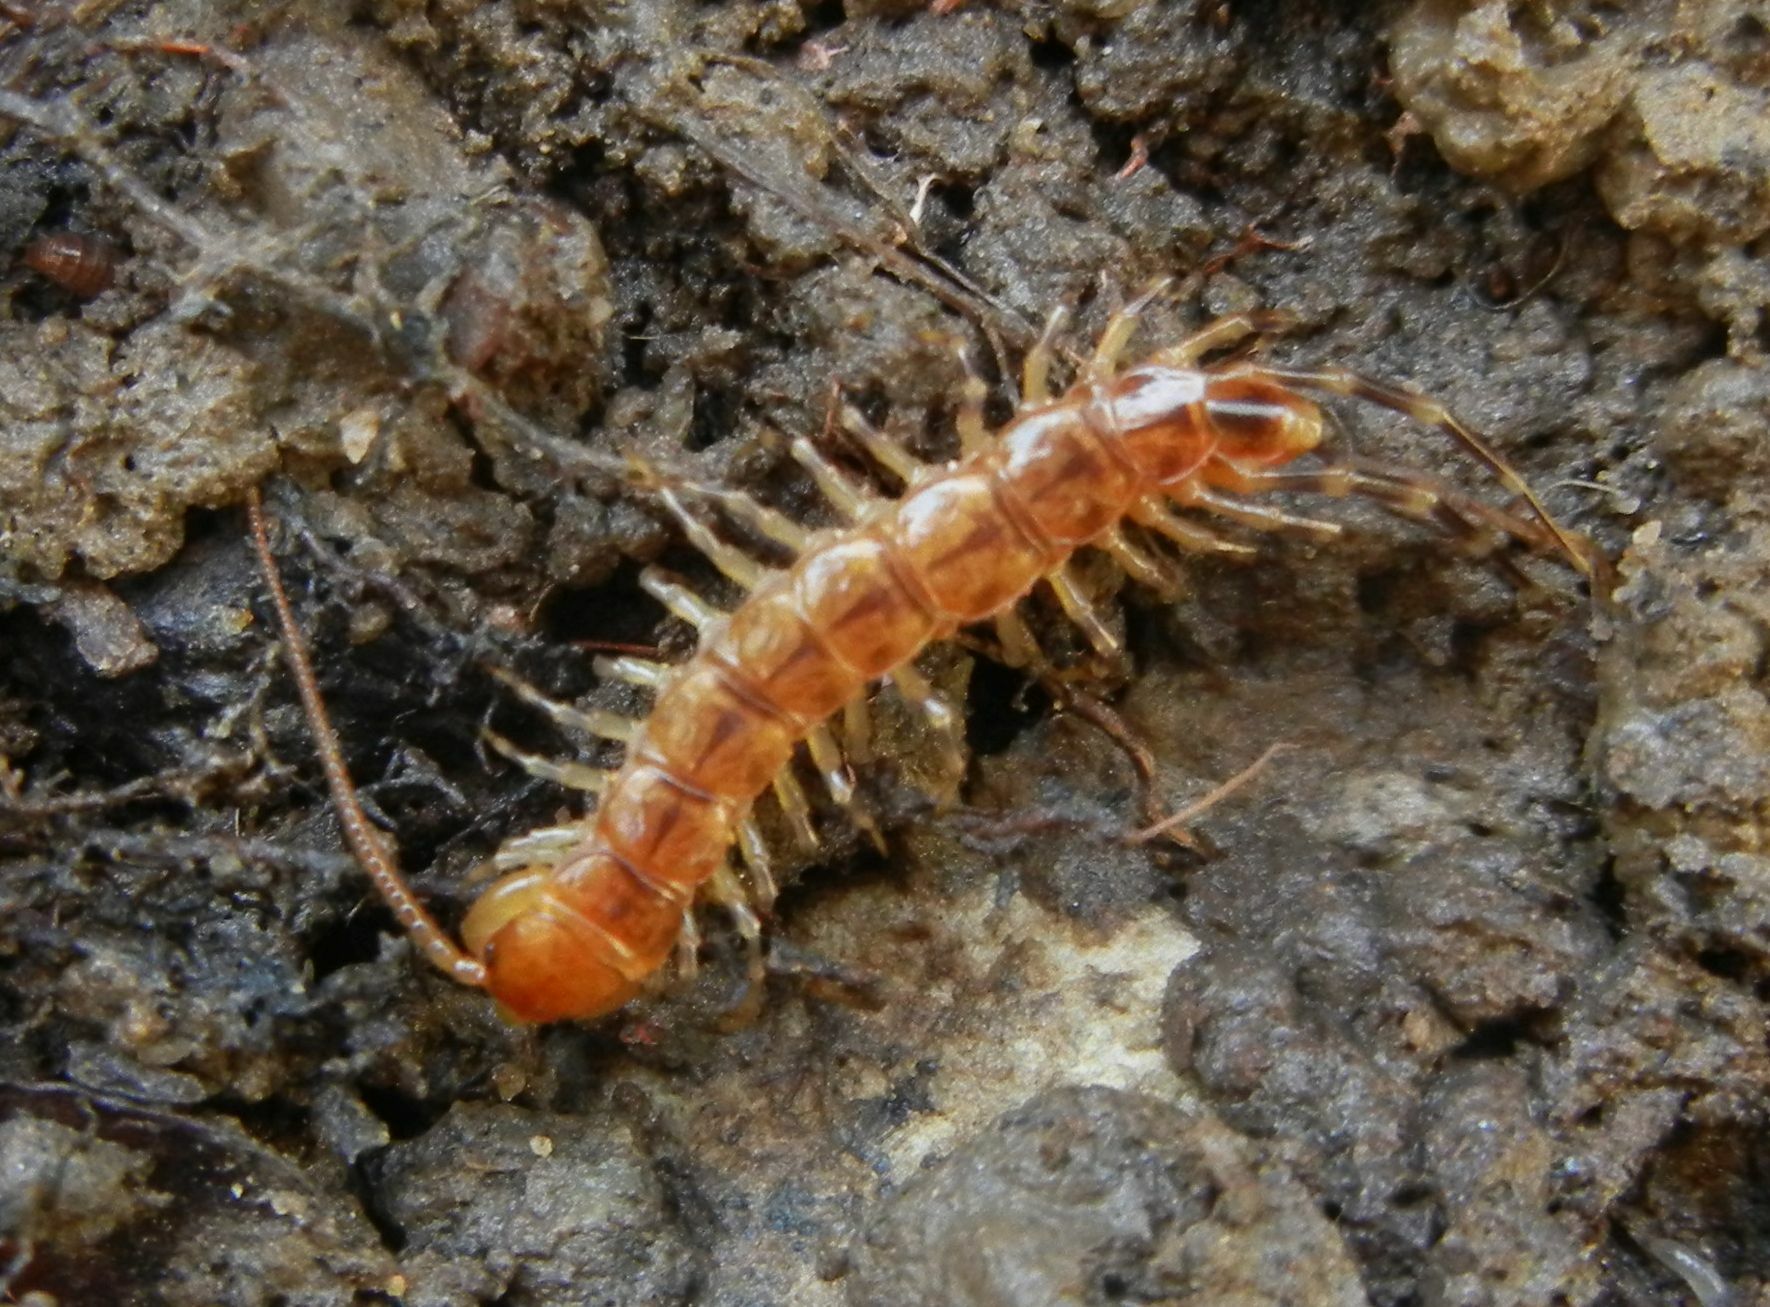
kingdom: Animalia
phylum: Arthropoda
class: Chilopoda
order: Lithobiomorpha
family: Lithobiidae
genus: Lithobius
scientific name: Lithobius variegatus
